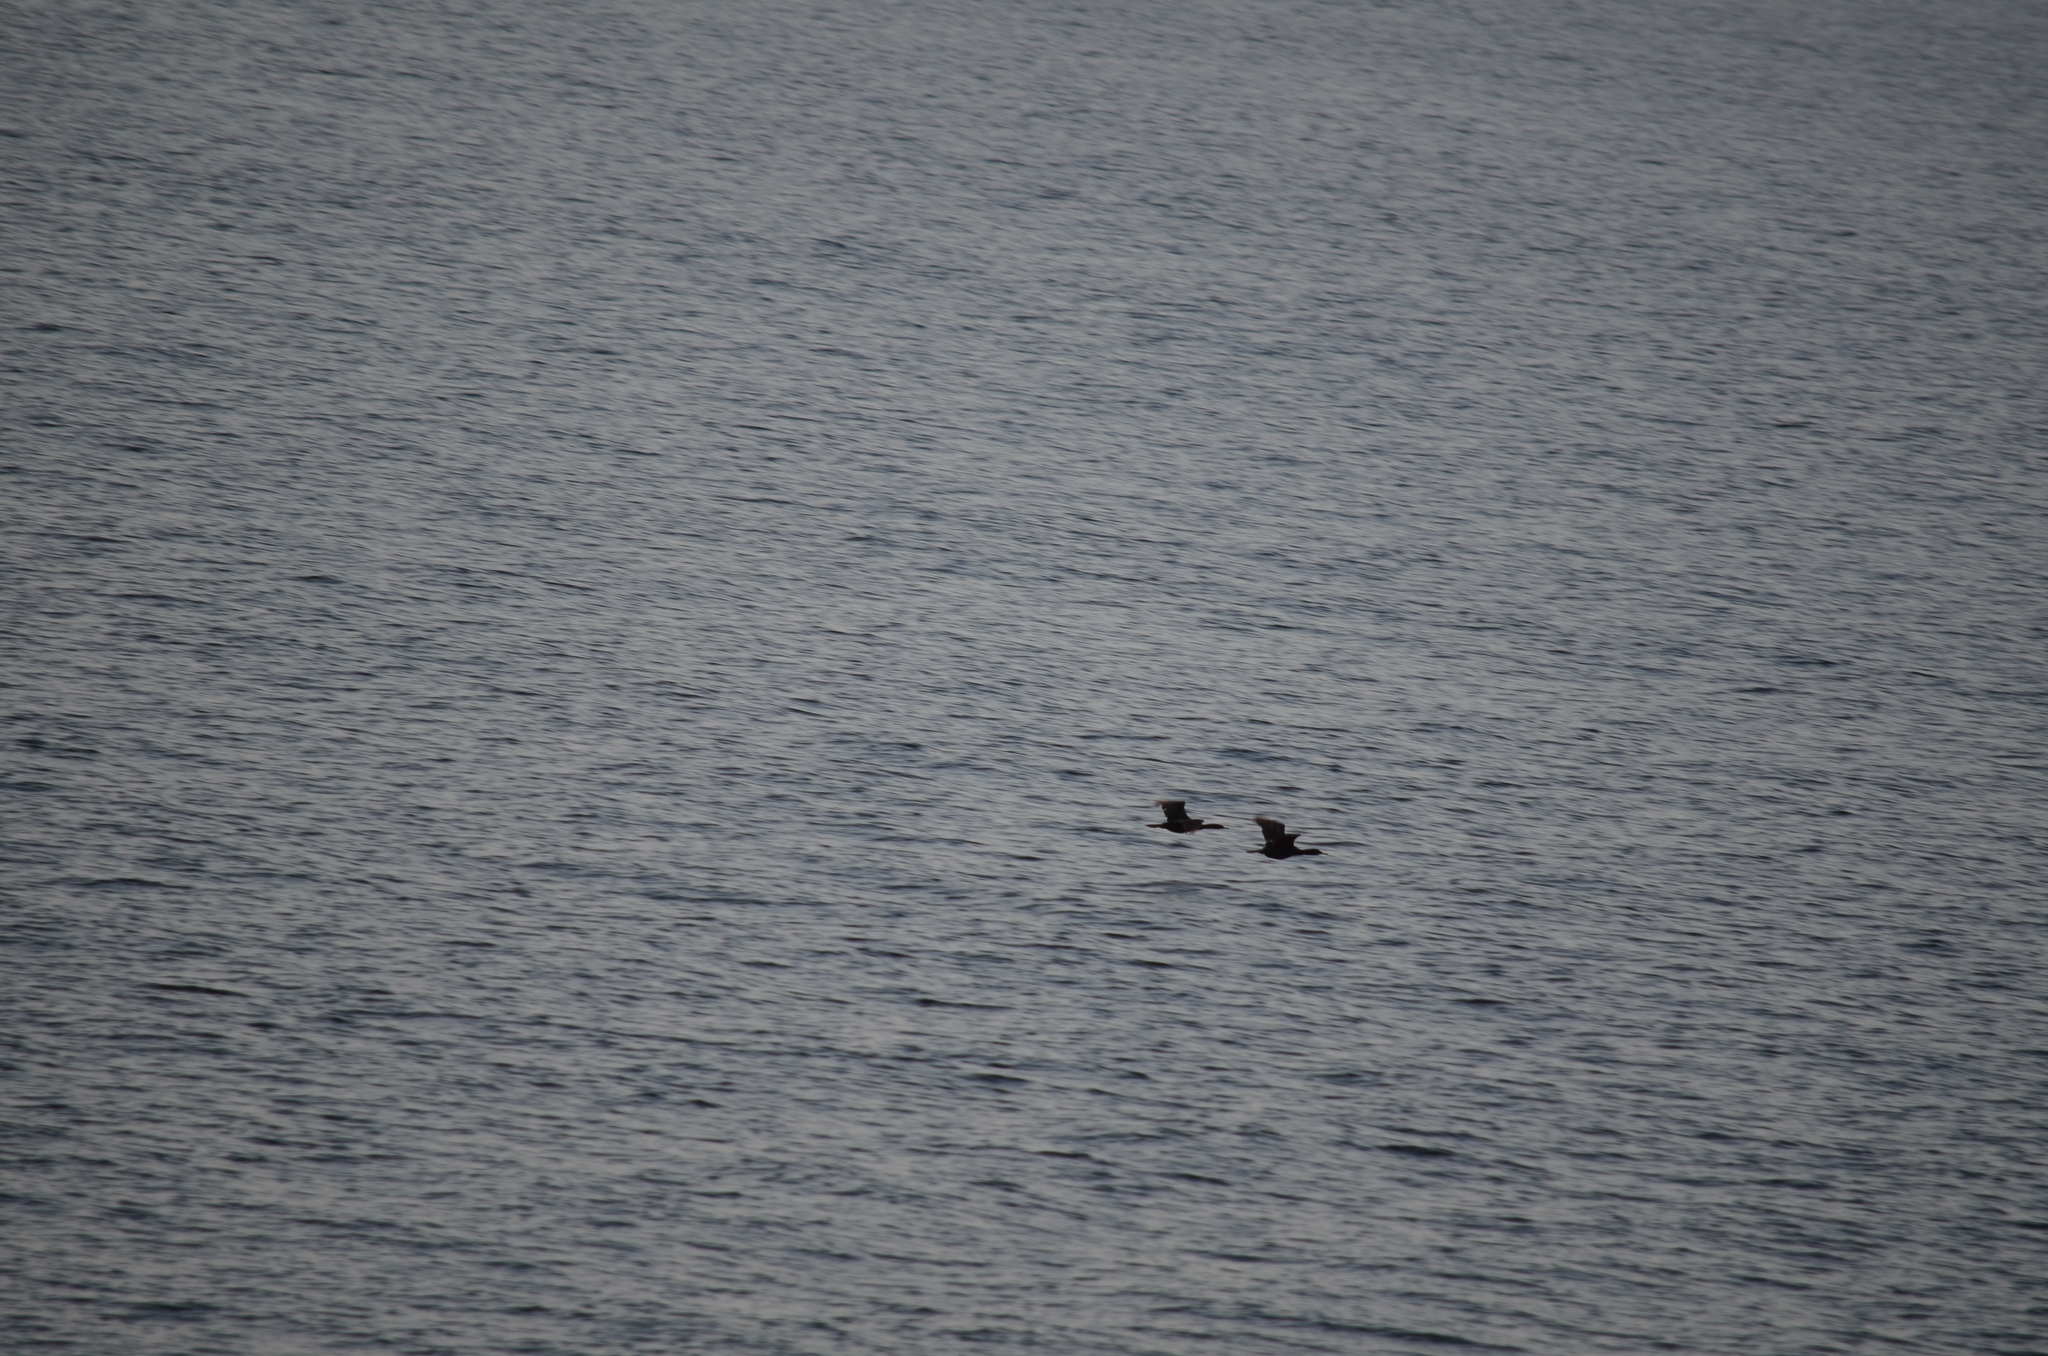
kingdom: Animalia
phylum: Chordata
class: Aves
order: Suliformes
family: Phalacrocoracidae
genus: Phalacrocorax
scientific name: Phalacrocorax pelagicus
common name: Pelagic cormorant
